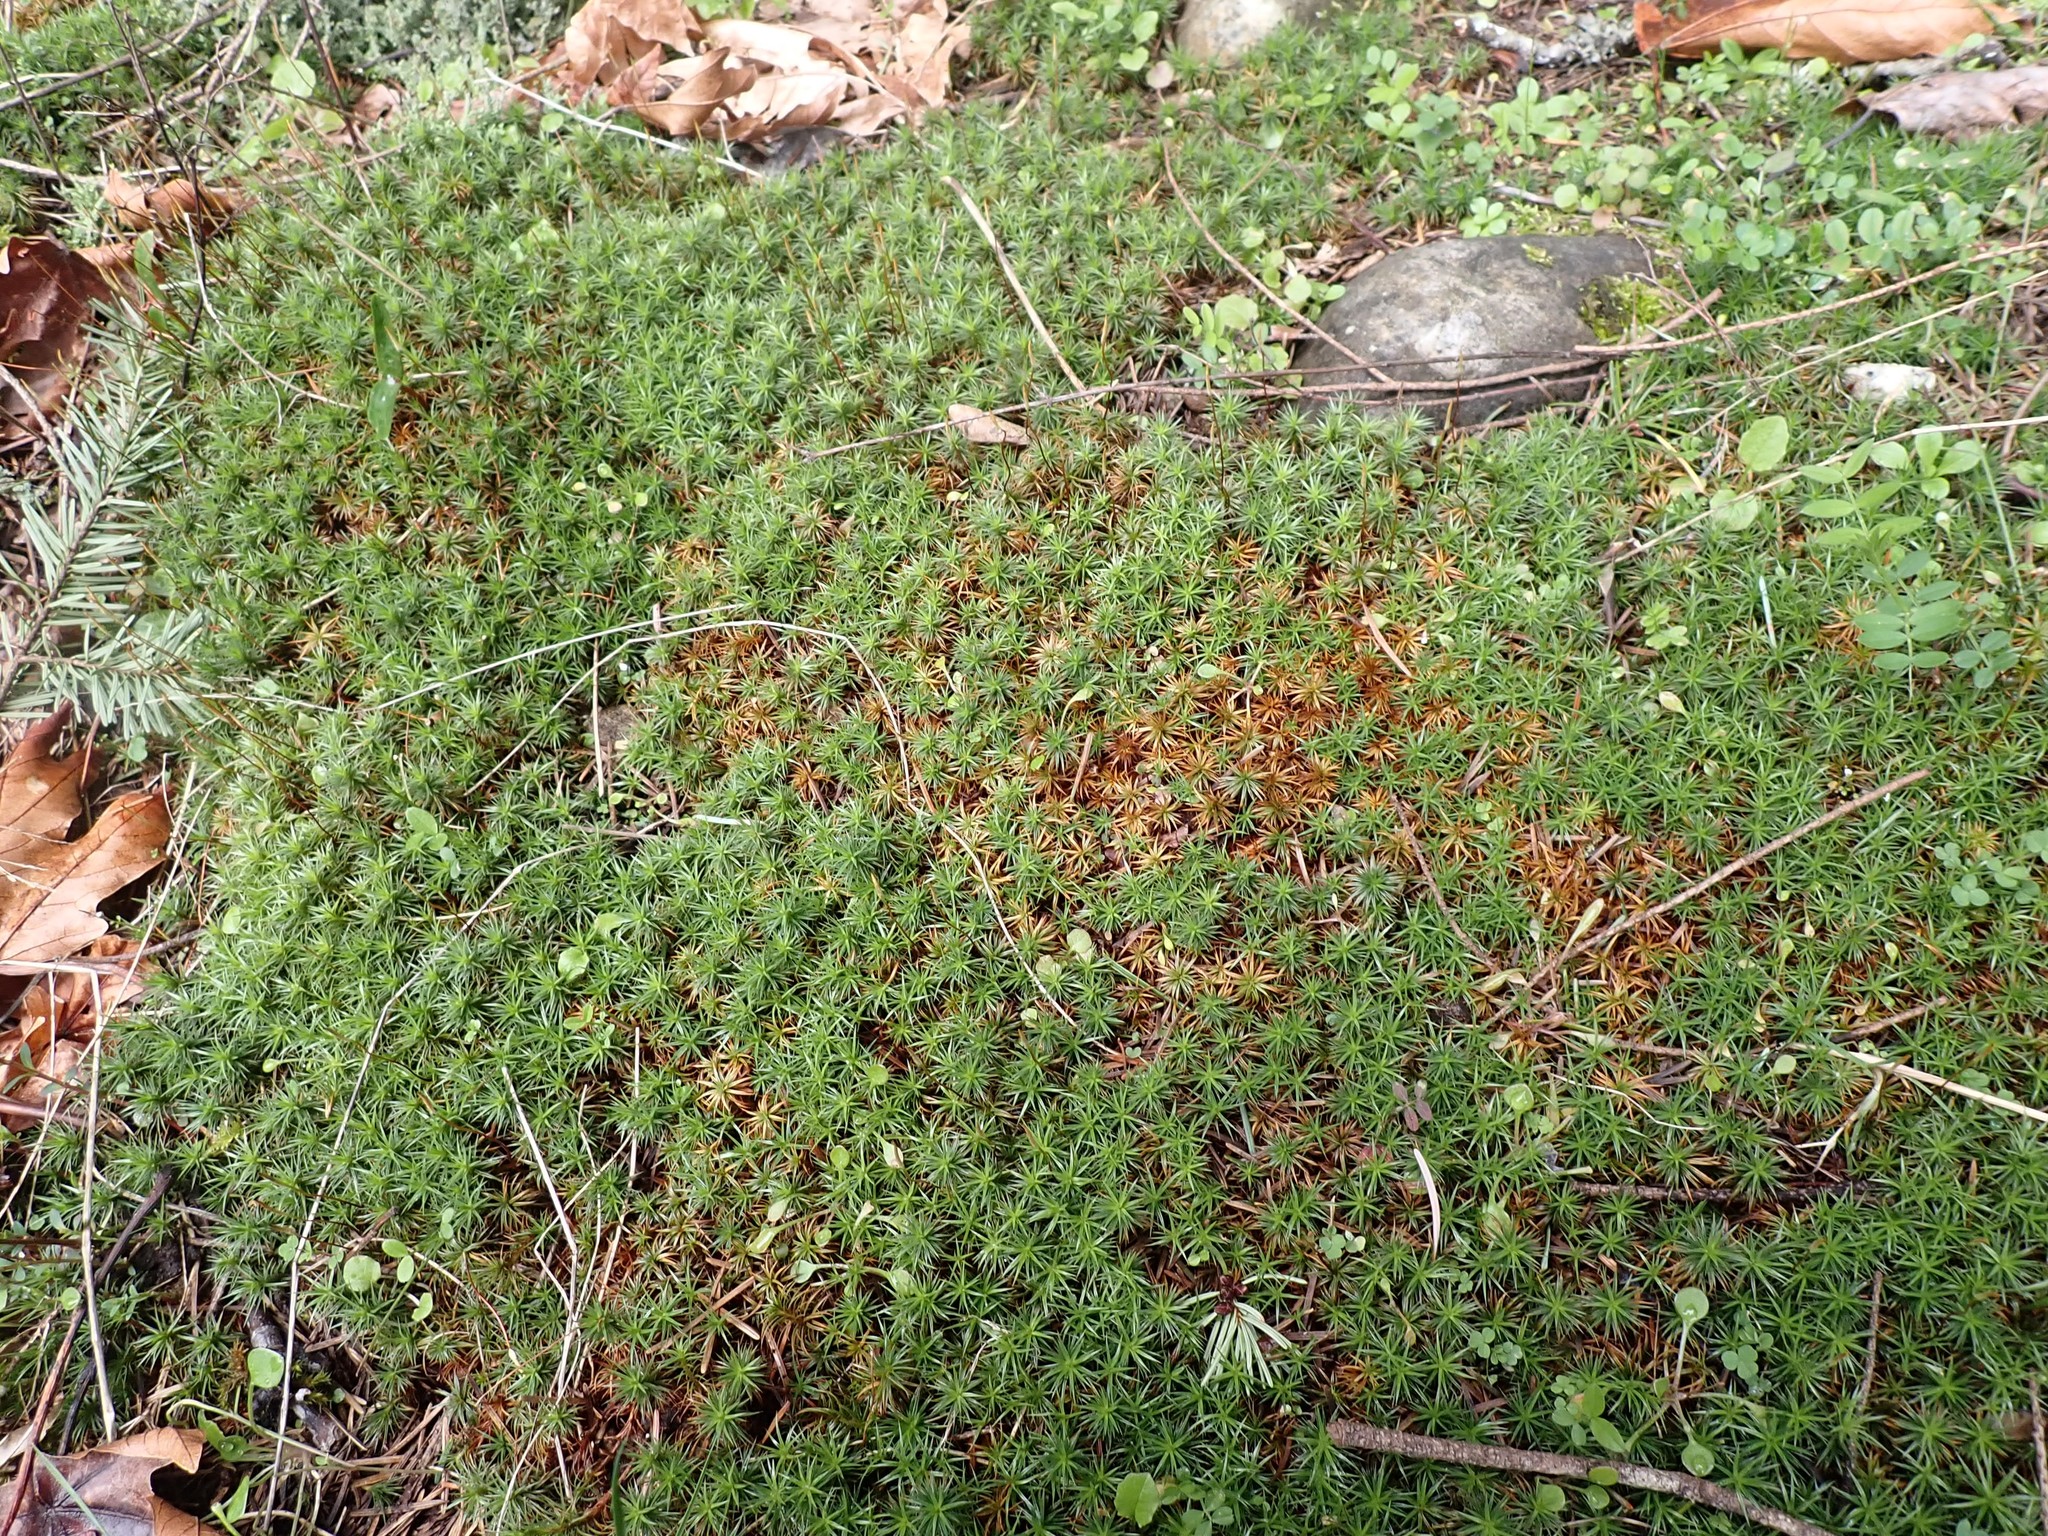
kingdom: Plantae
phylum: Bryophyta
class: Polytrichopsida
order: Polytrichales
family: Polytrichaceae
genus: Polytrichum
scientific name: Polytrichum juniperinum
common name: Juniper haircap moss
